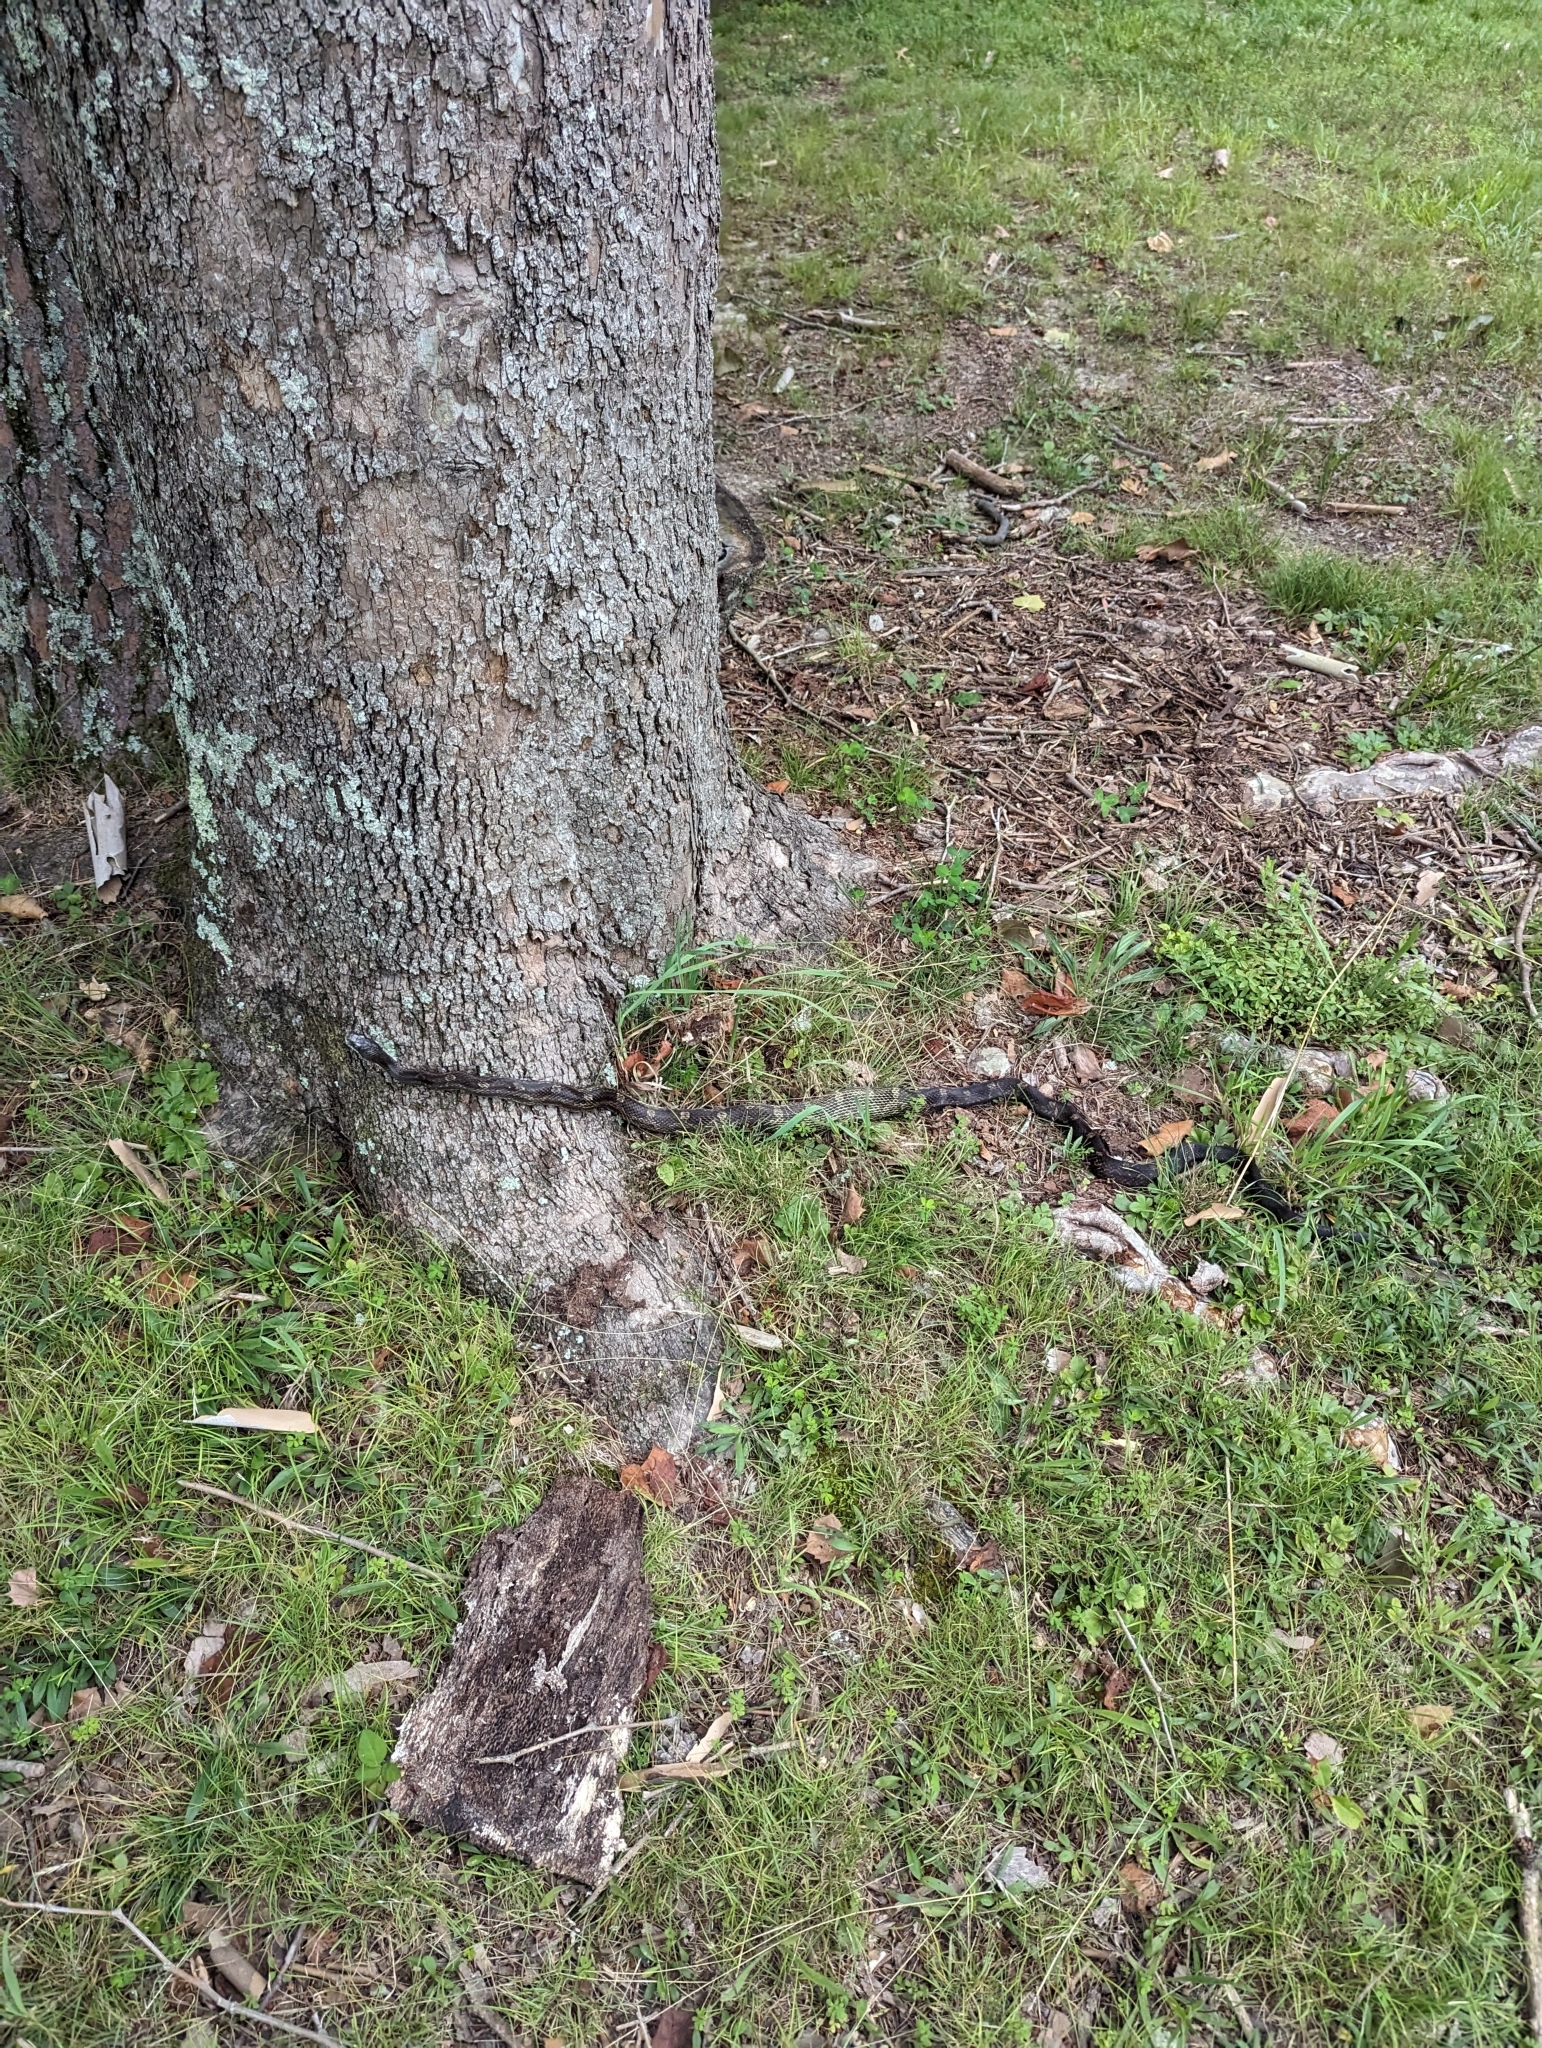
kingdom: Animalia
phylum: Chordata
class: Squamata
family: Colubridae
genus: Pantherophis
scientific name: Pantherophis spiloides
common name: Gray rat snake
